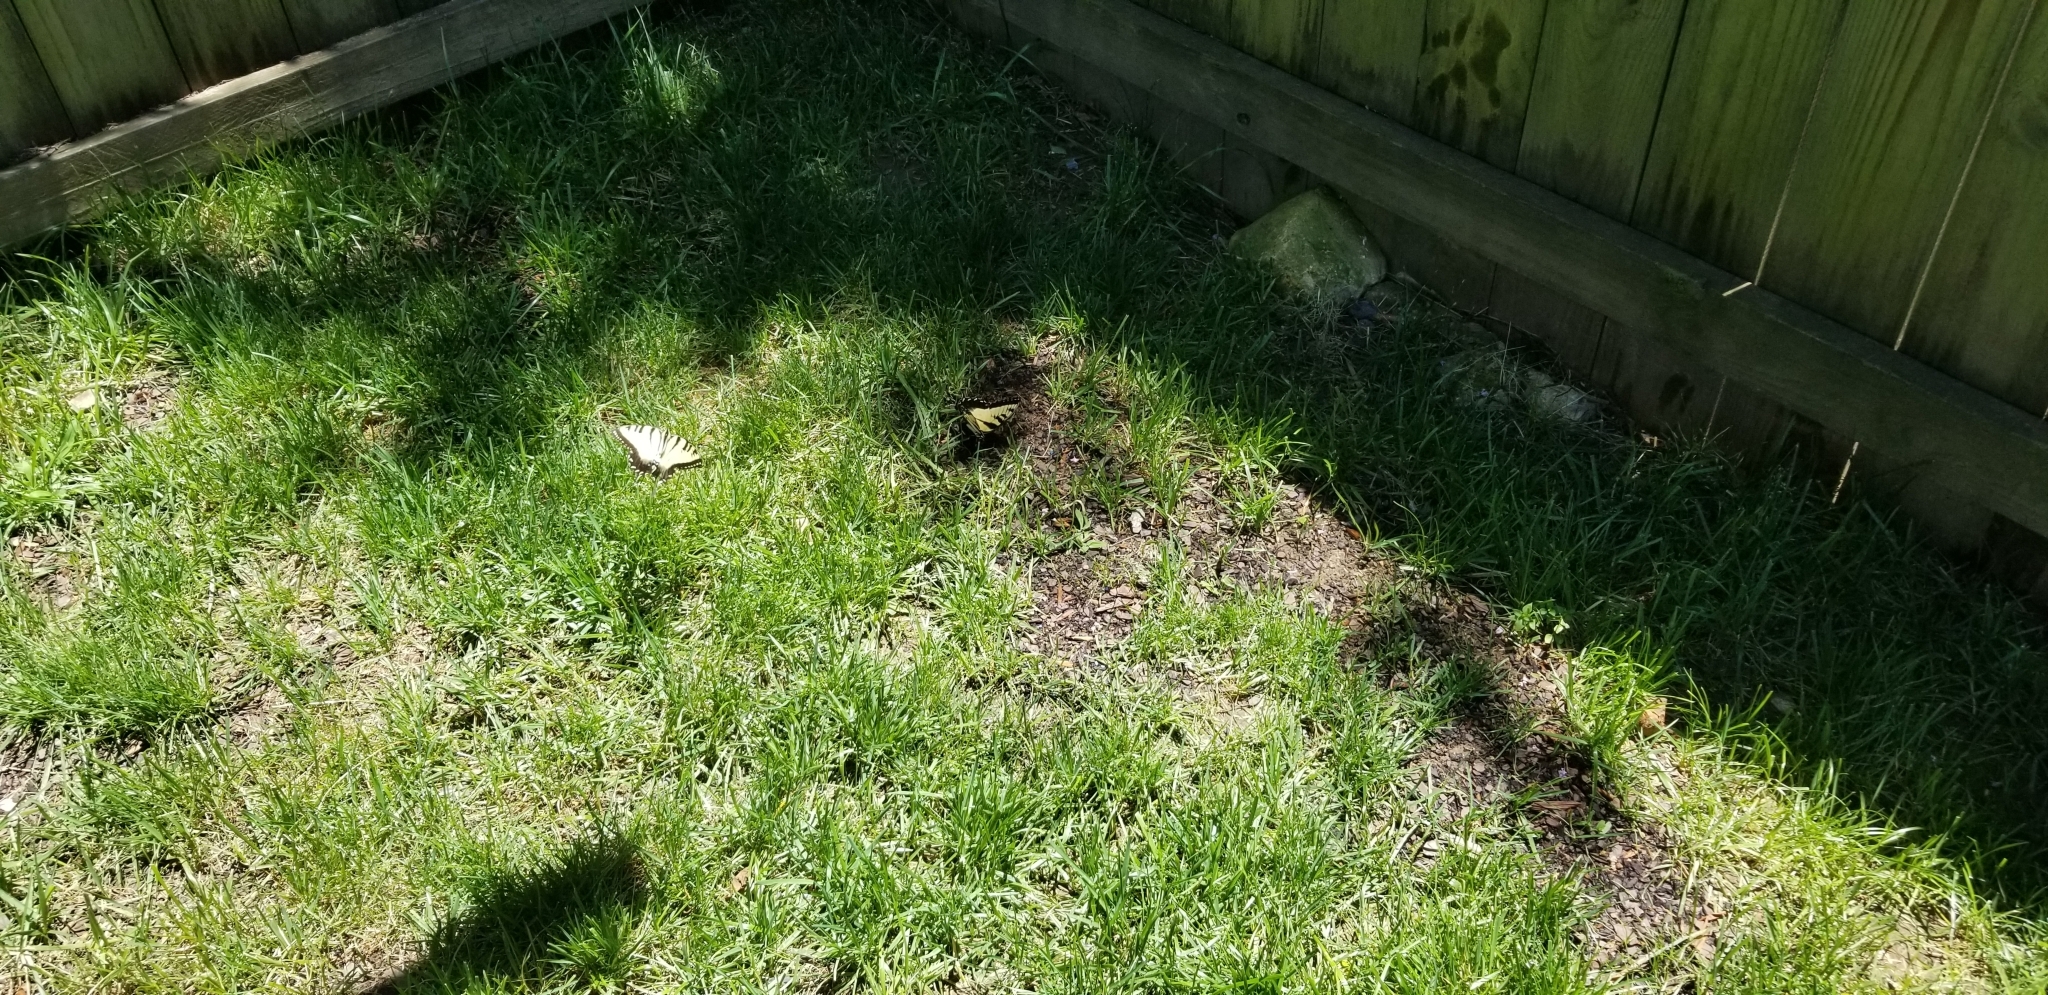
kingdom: Animalia
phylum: Arthropoda
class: Insecta
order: Lepidoptera
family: Papilionidae
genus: Papilio
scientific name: Papilio glaucus
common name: Tiger swallowtail
